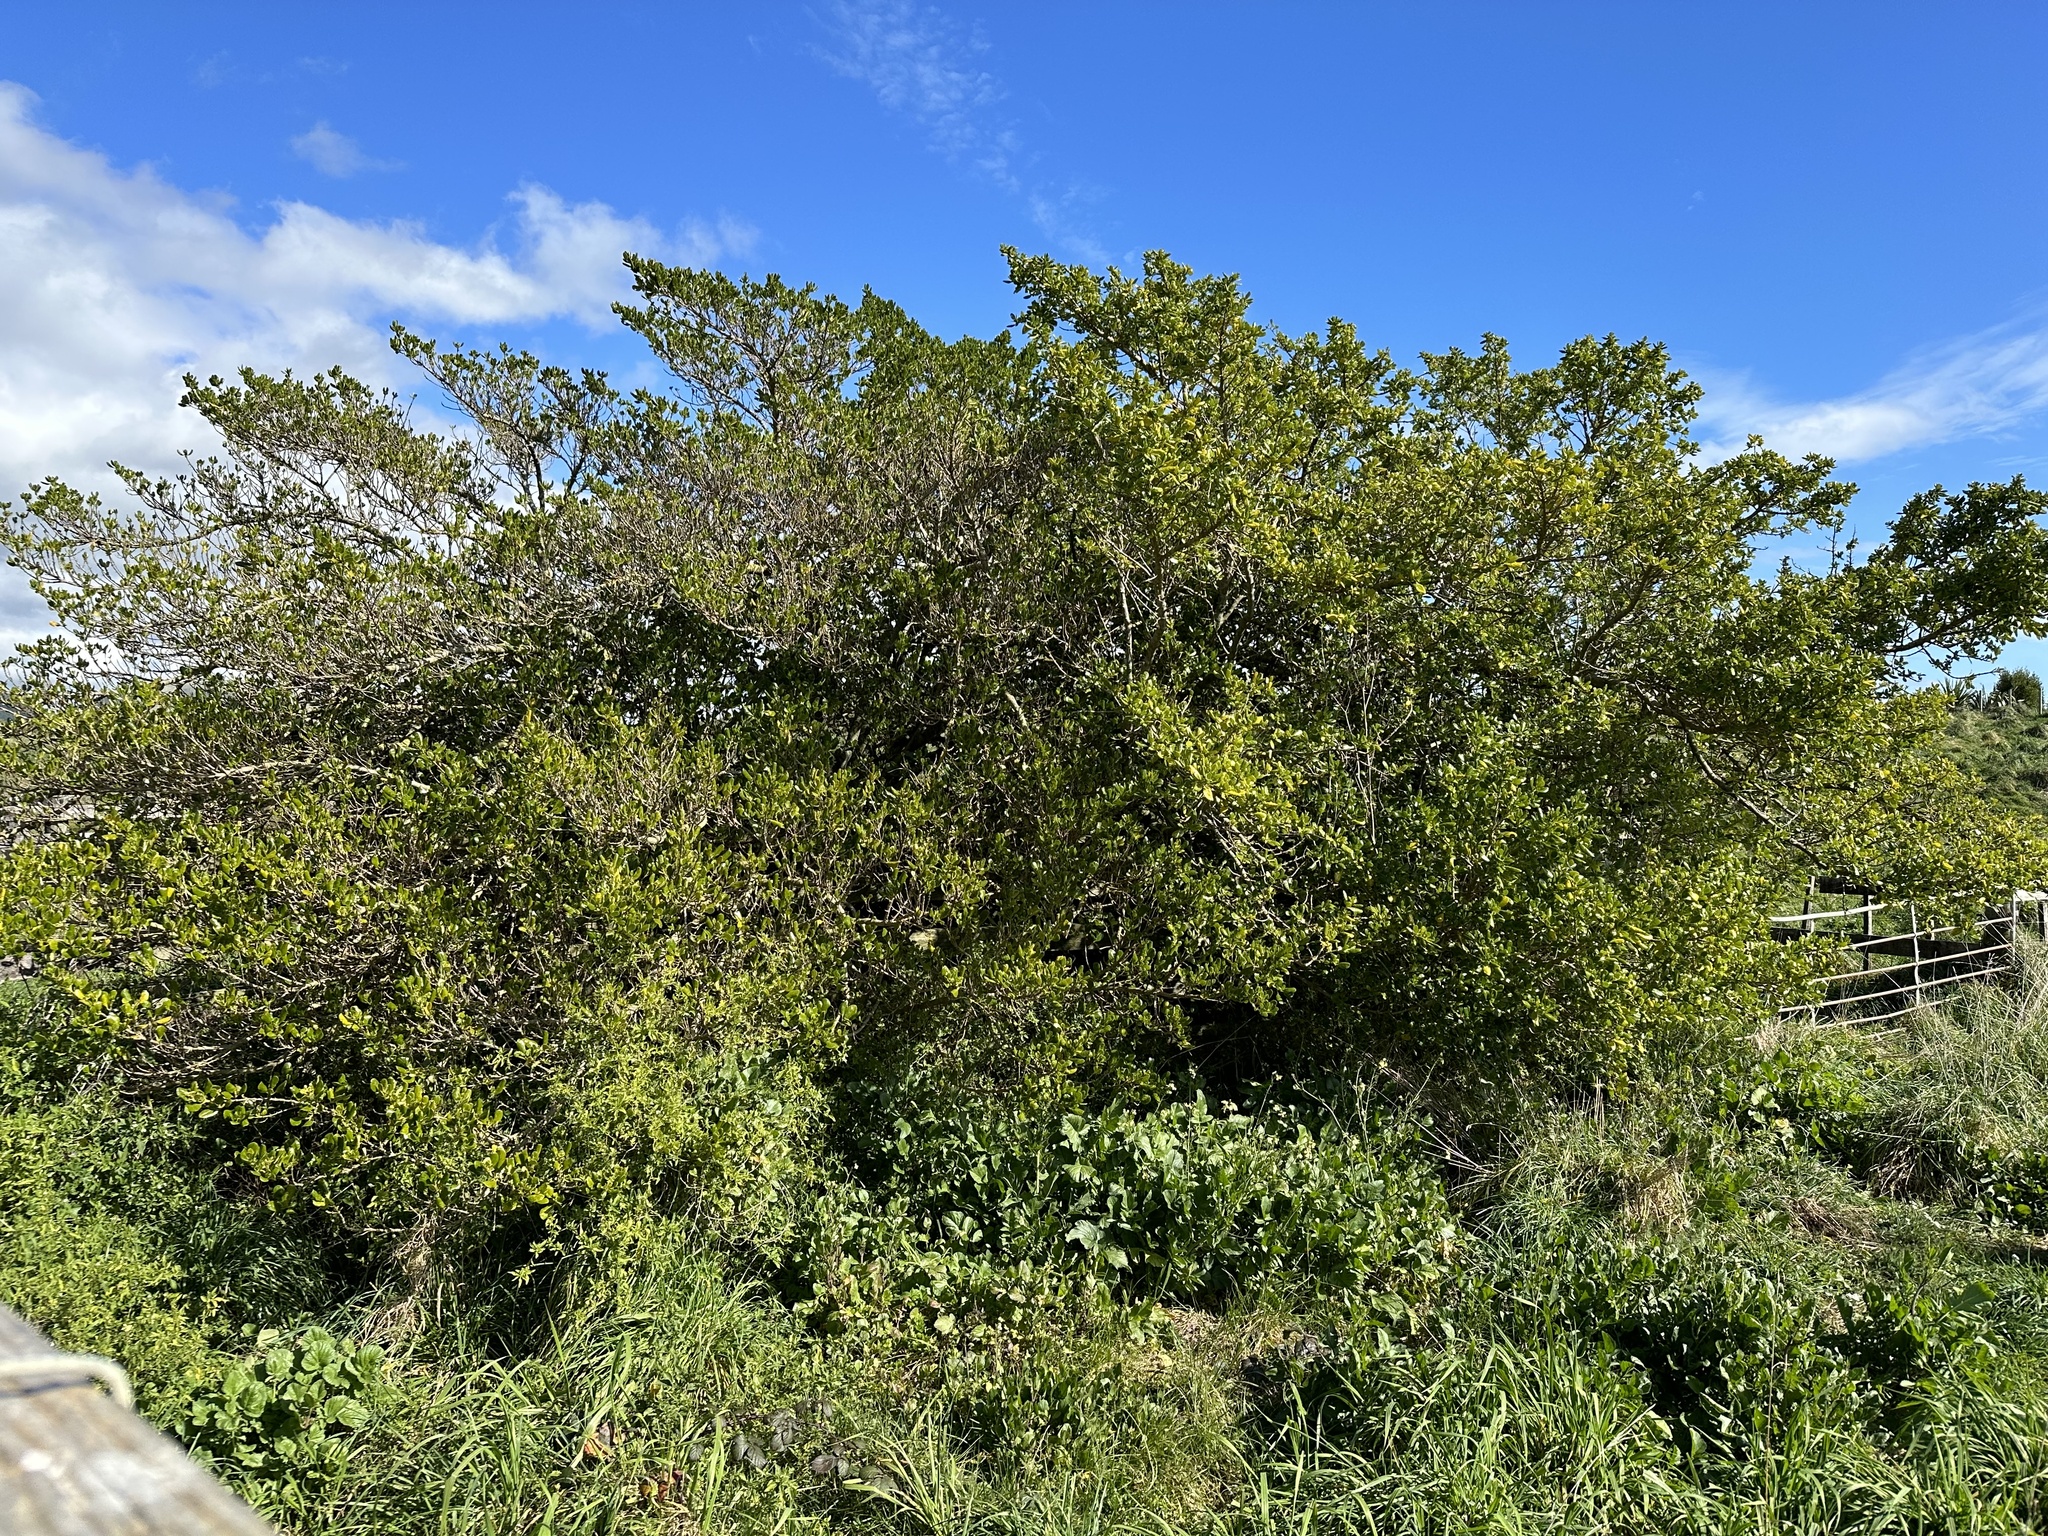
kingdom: Plantae
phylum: Tracheophyta
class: Magnoliopsida
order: Gentianales
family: Rubiaceae
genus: Coprosma
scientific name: Coprosma repens
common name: Tree bedstraw
